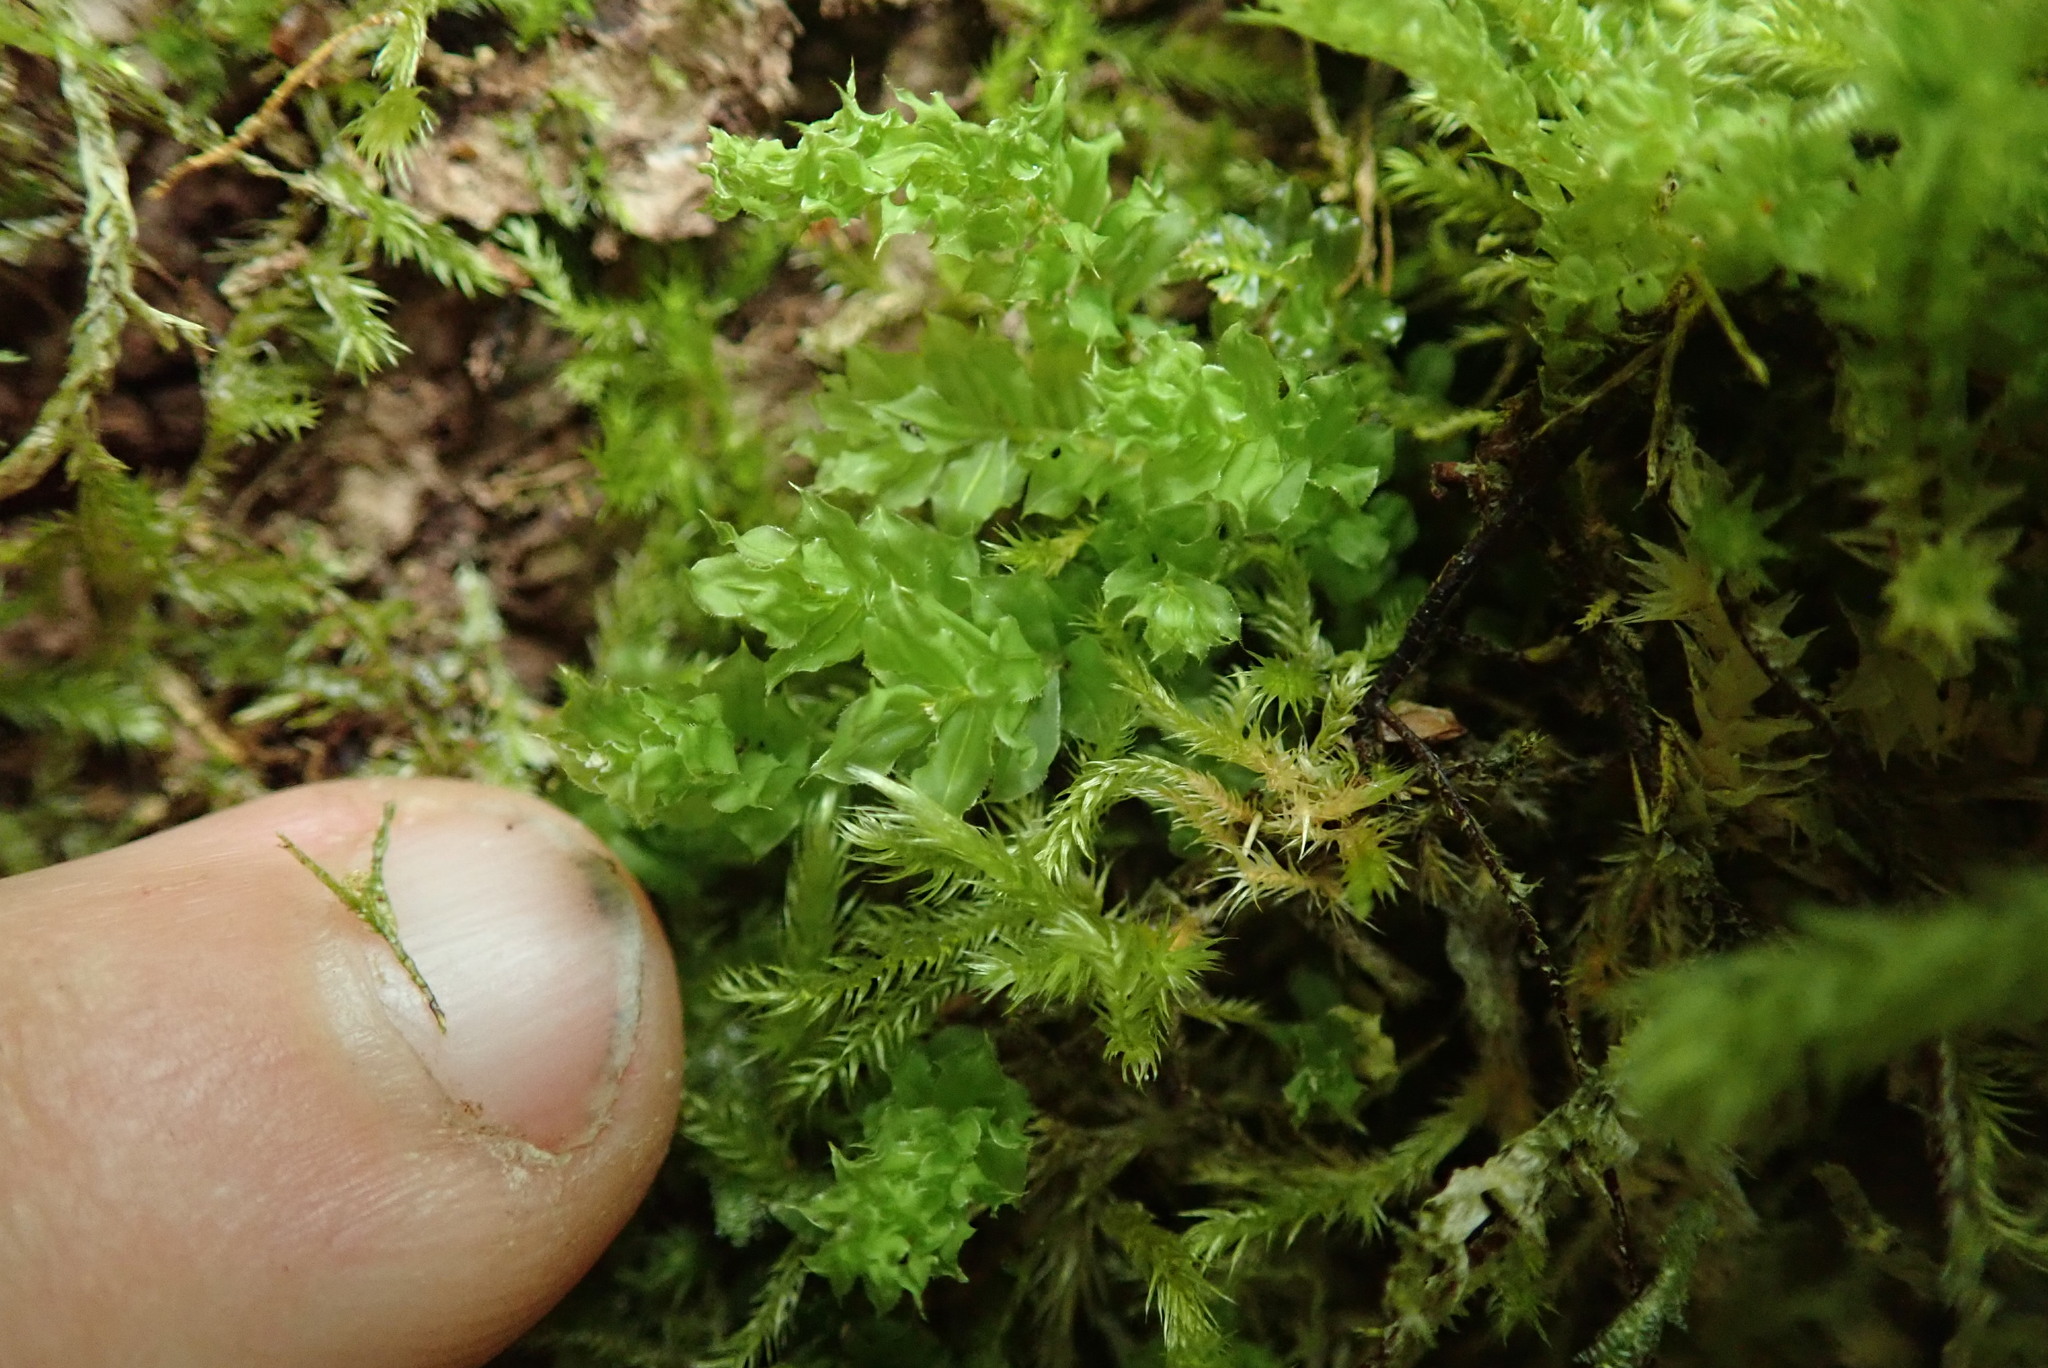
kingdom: Plantae
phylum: Bryophyta
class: Bryopsida
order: Bryales
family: Mniaceae
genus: Plagiomnium
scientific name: Plagiomnium venustum
